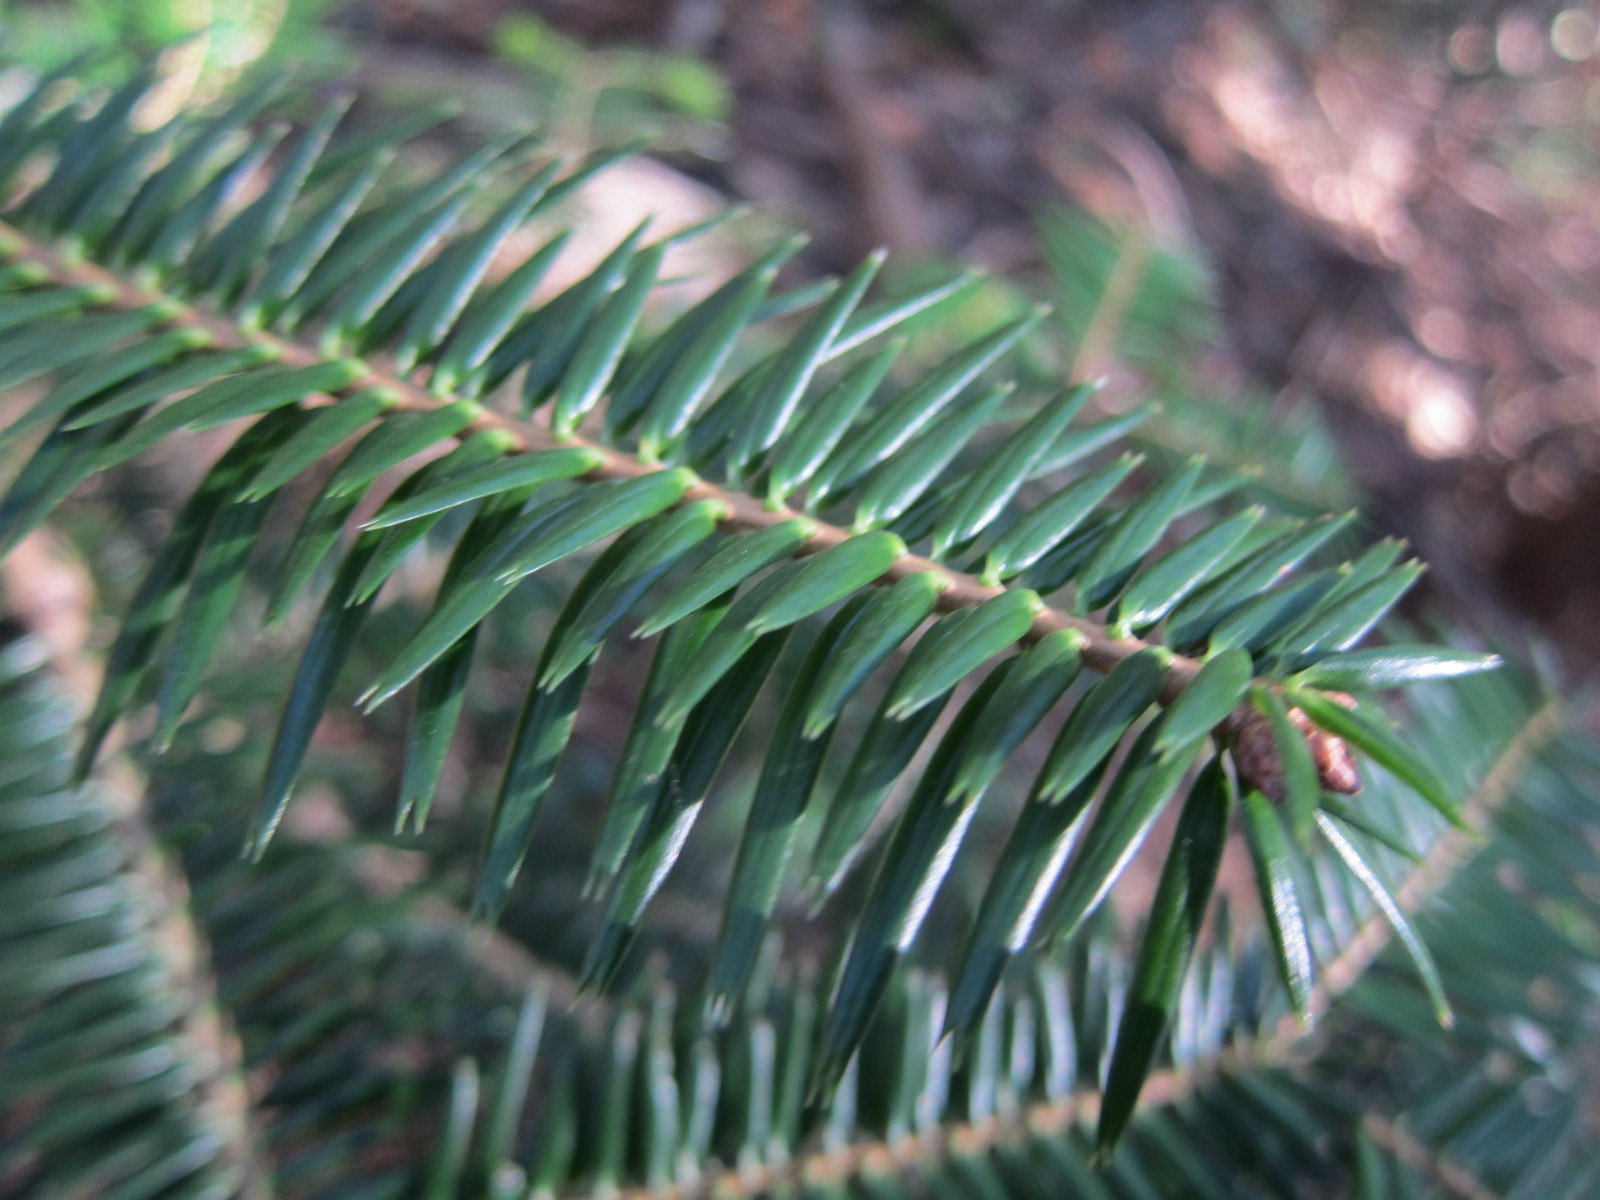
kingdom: Plantae
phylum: Tracheophyta
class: Pinopsida
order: Pinales
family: Pinaceae
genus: Abies
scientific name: Abies firma
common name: Momi fir
